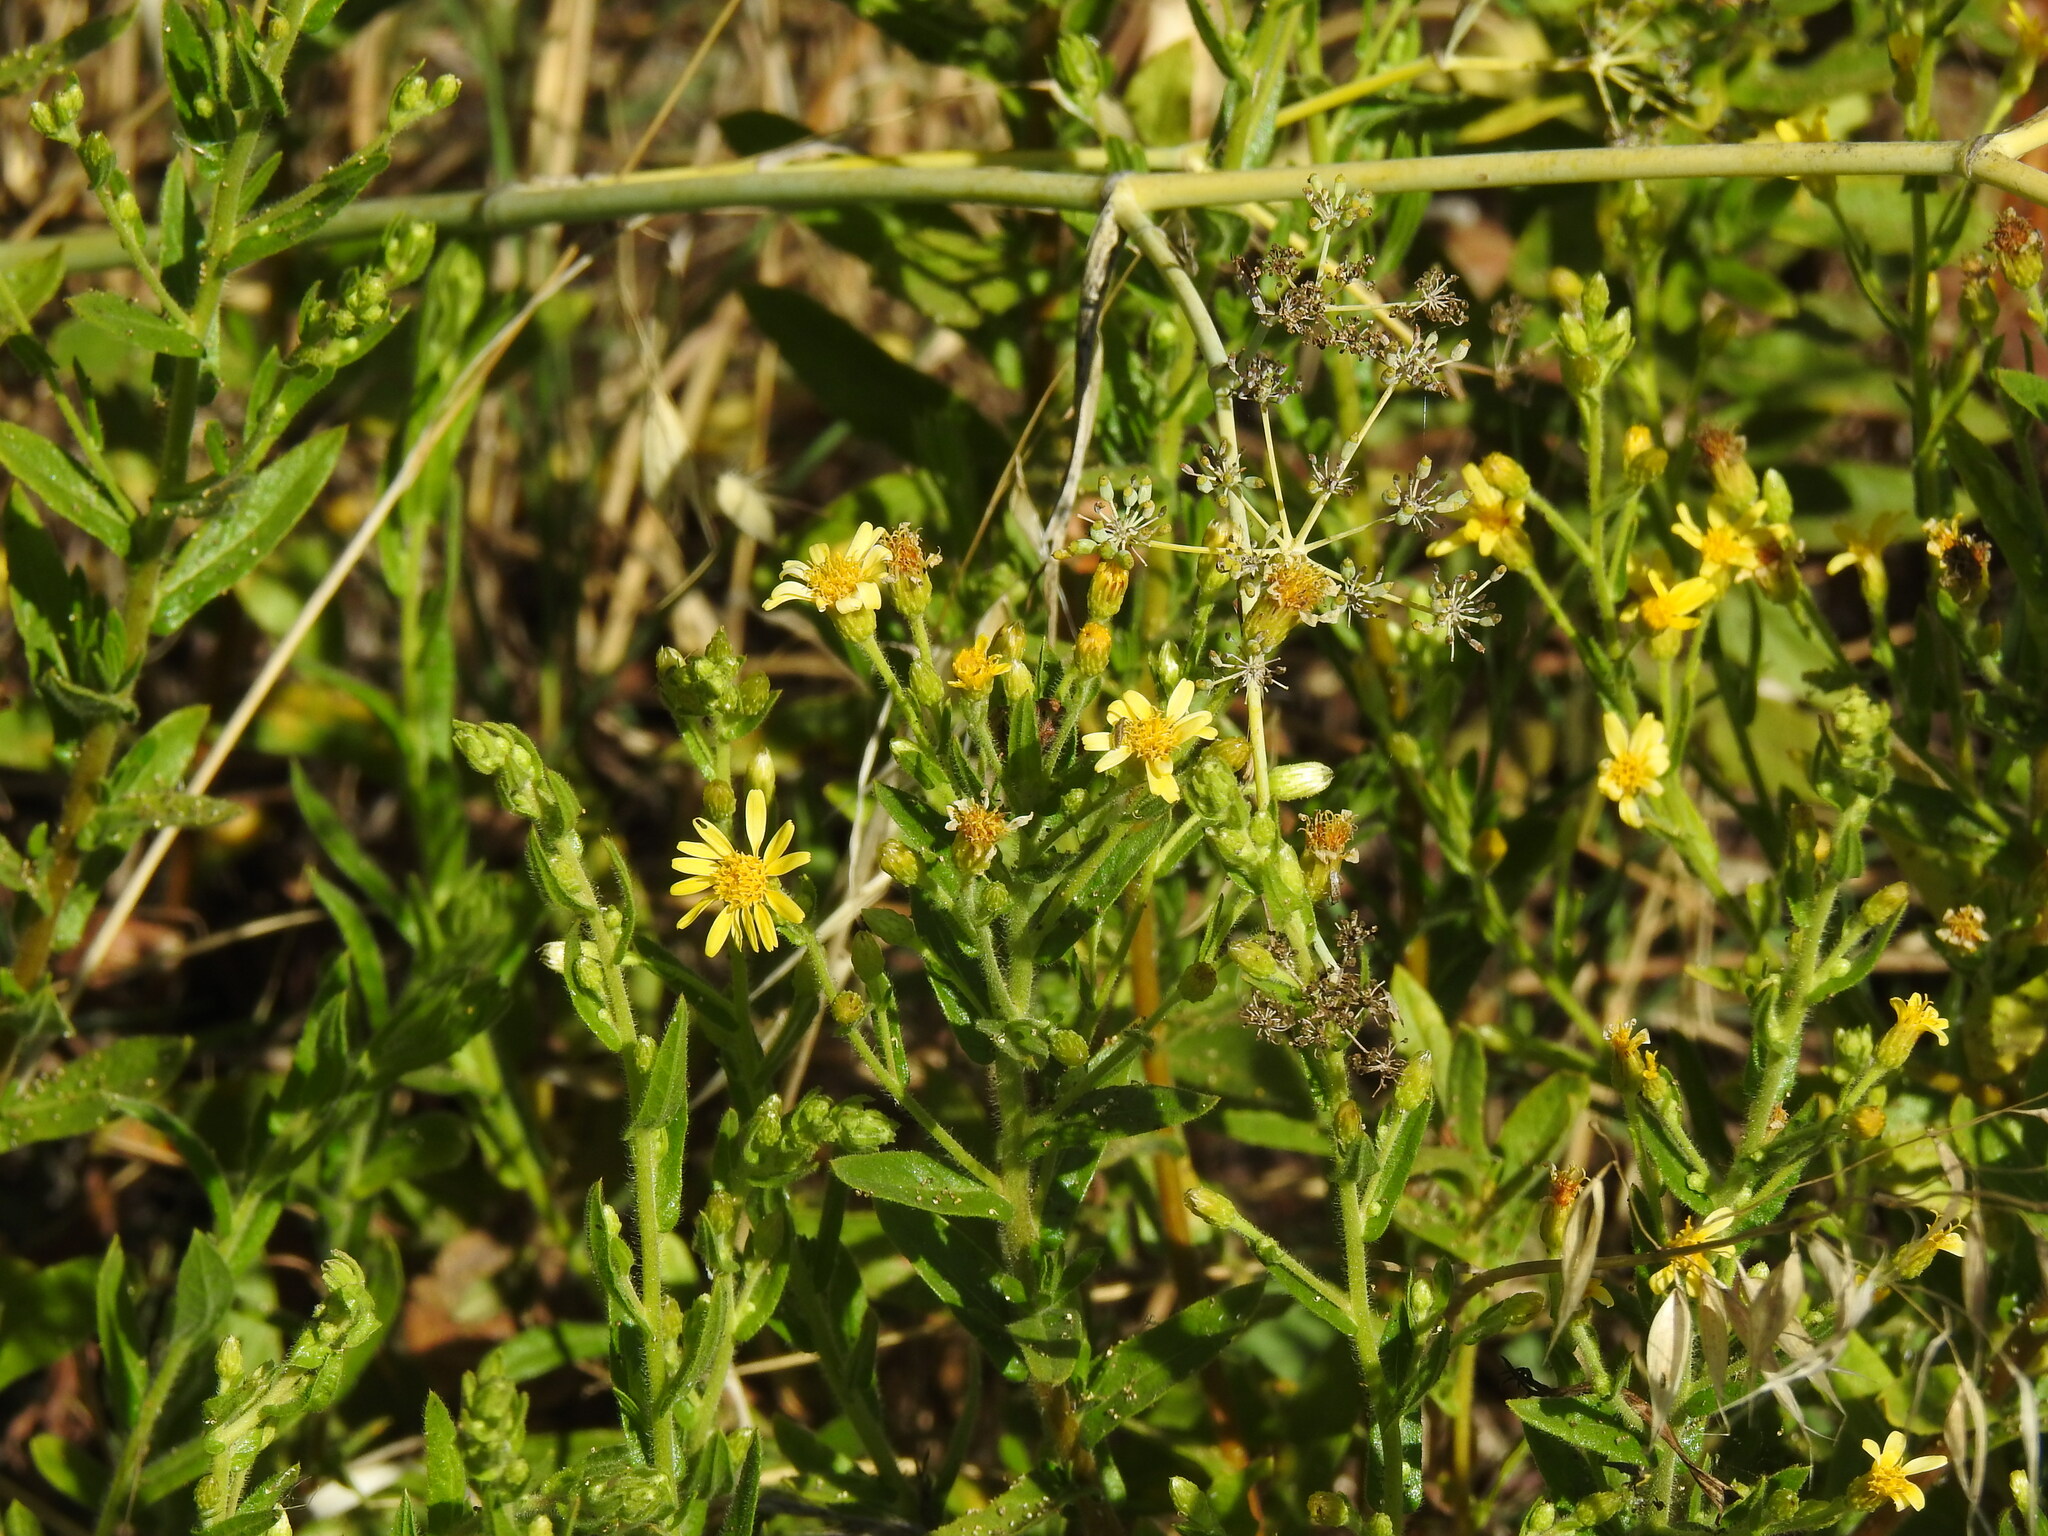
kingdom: Plantae
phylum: Tracheophyta
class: Magnoliopsida
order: Asterales
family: Asteraceae
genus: Dittrichia
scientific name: Dittrichia viscosa
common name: Woody fleabane
